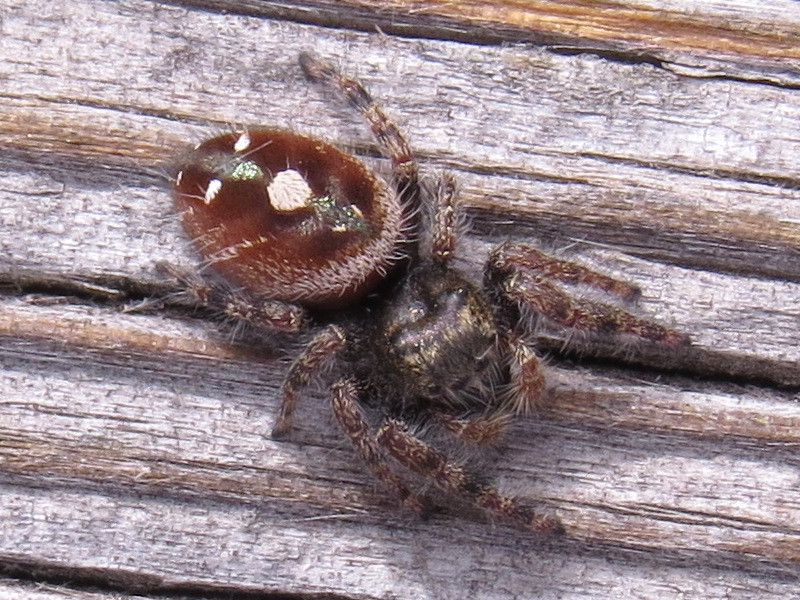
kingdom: Animalia
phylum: Arthropoda
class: Arachnida
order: Araneae
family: Salticidae
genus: Phidippus
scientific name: Phidippus audax
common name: Bold jumper
